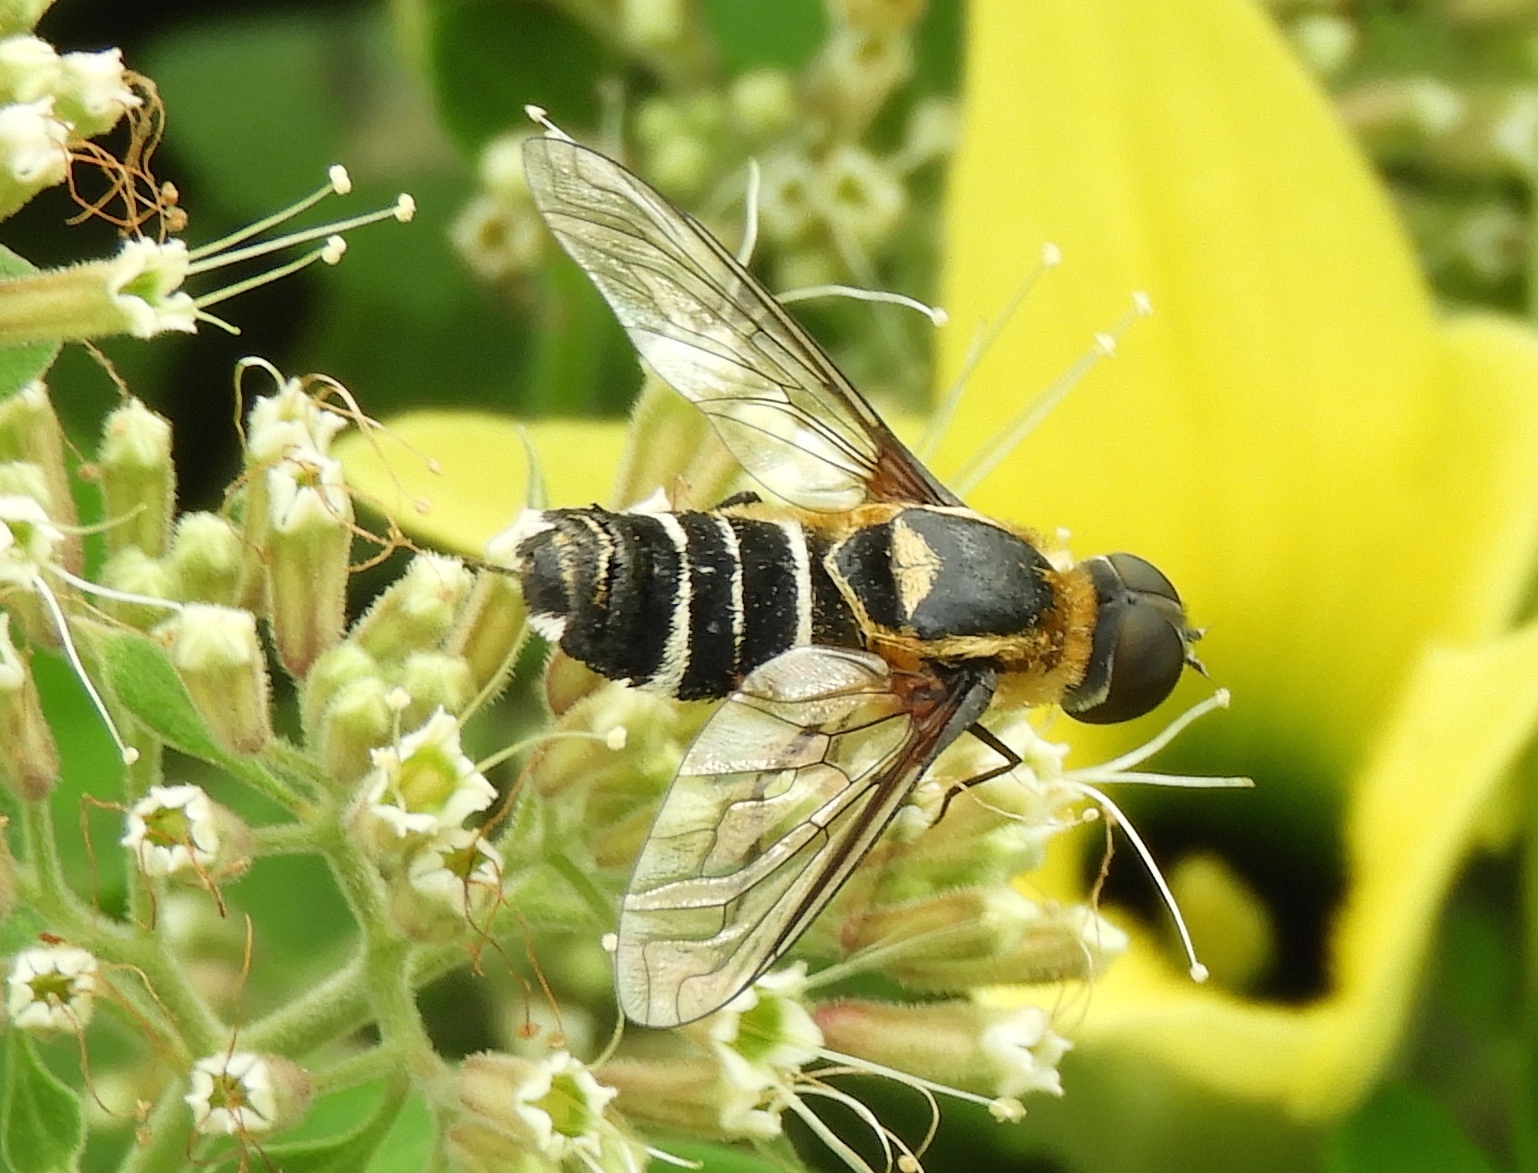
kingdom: Animalia
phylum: Arthropoda
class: Insecta
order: Diptera
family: Bombyliidae
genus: Villa
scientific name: Villa
